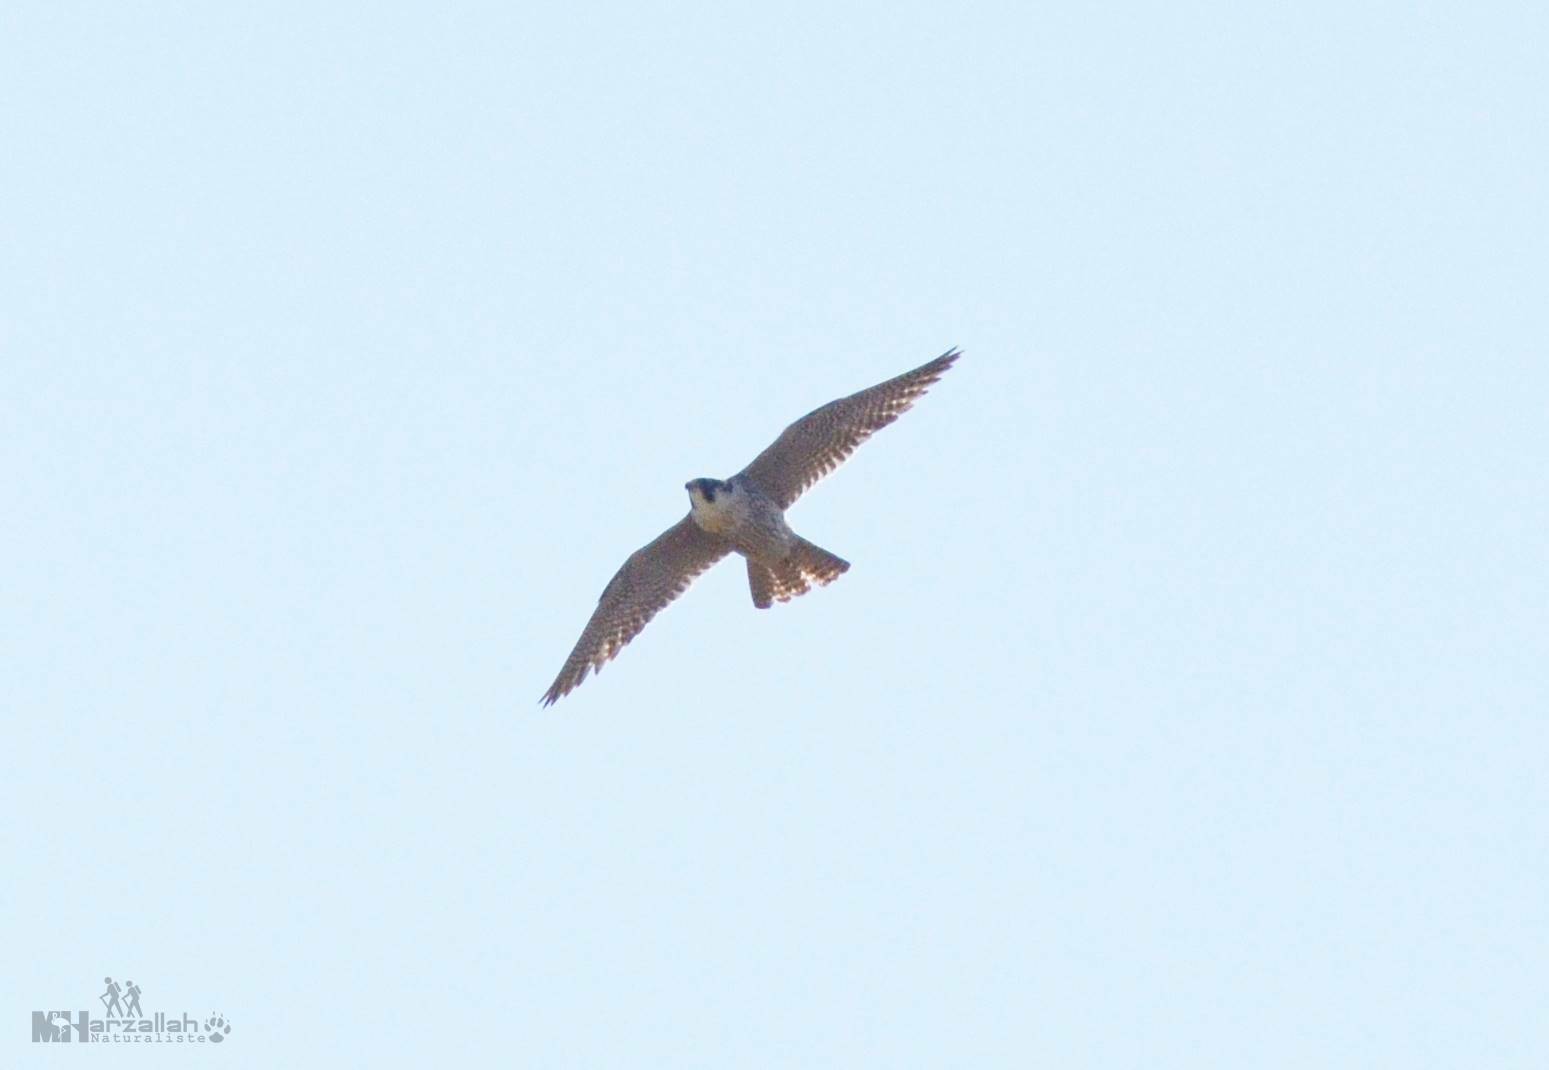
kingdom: Animalia
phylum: Chordata
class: Aves
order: Falconiformes
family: Falconidae
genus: Falco
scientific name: Falco peregrinus
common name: Peregrine falcon
